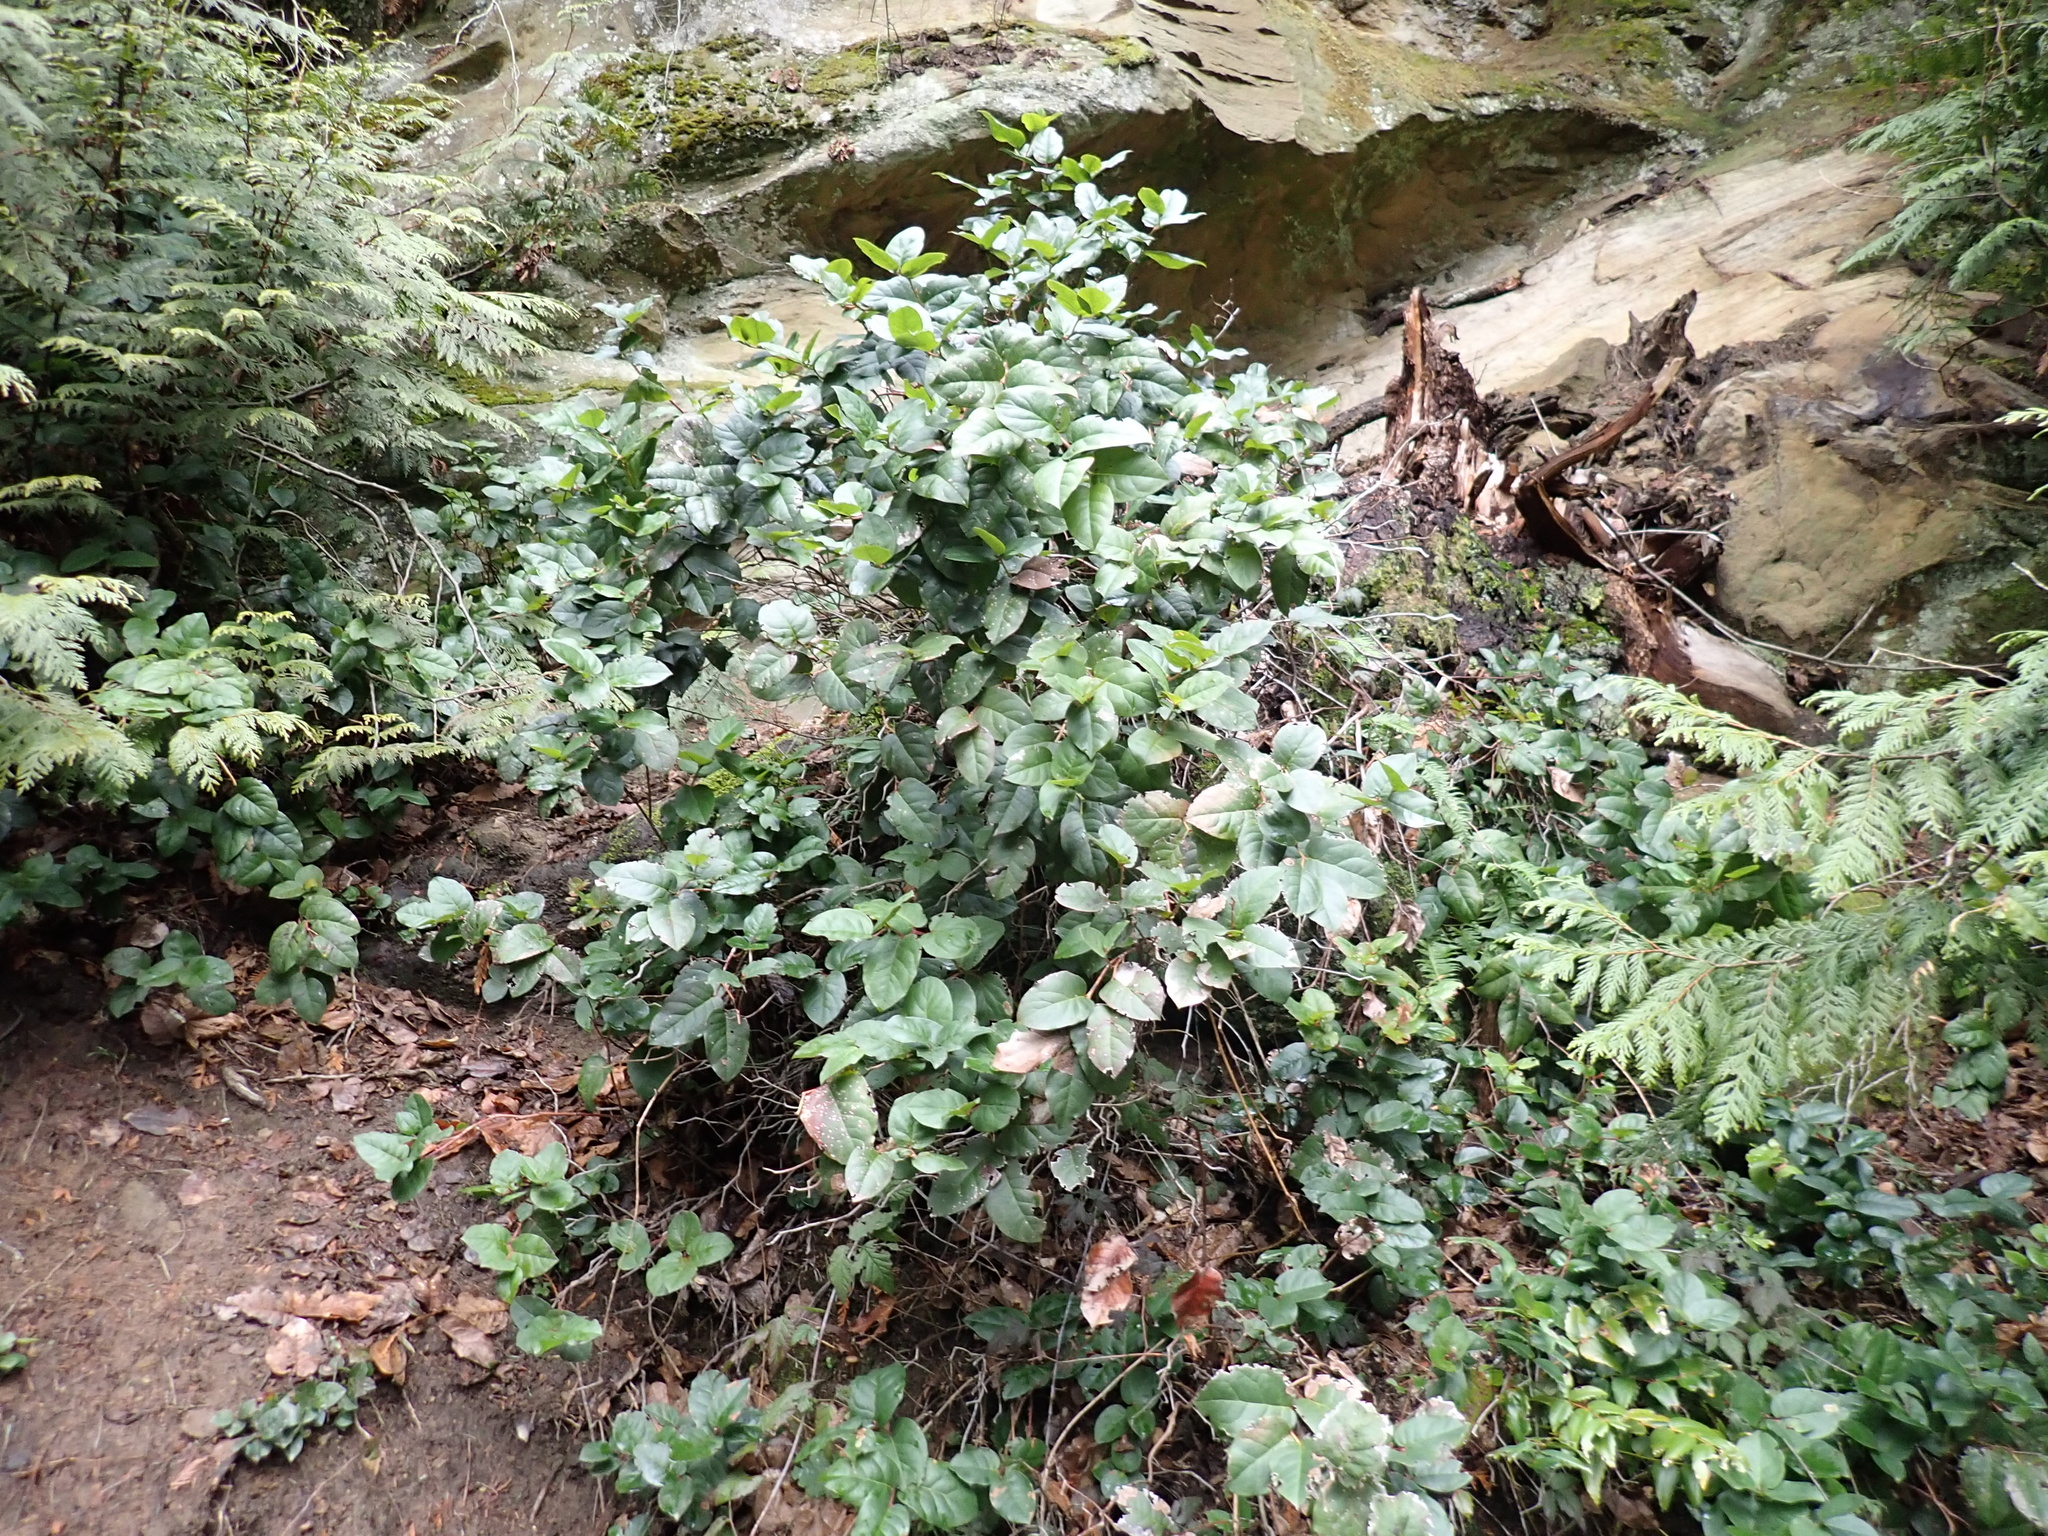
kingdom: Plantae
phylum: Tracheophyta
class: Magnoliopsida
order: Ericales
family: Ericaceae
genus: Gaultheria
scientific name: Gaultheria shallon
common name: Shallon
